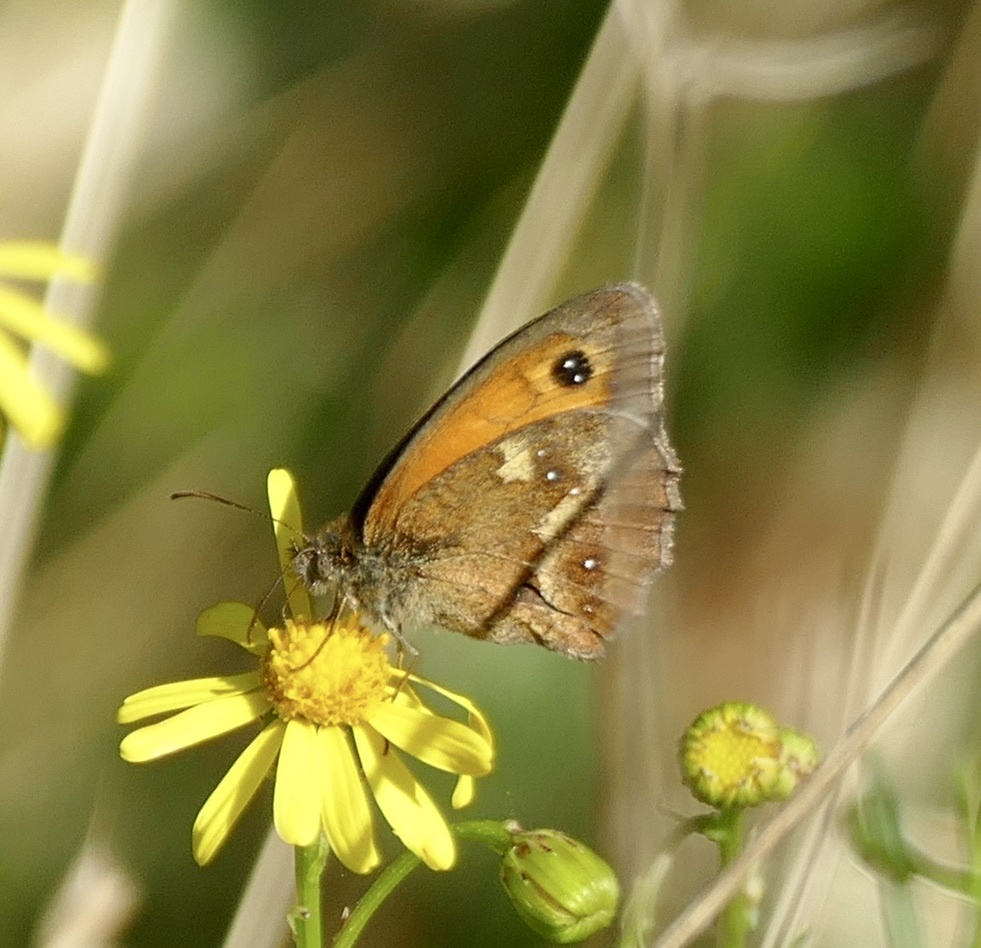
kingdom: Animalia
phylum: Arthropoda
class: Insecta
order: Lepidoptera
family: Nymphalidae
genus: Pyronia
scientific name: Pyronia tithonus
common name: Gatekeeper
